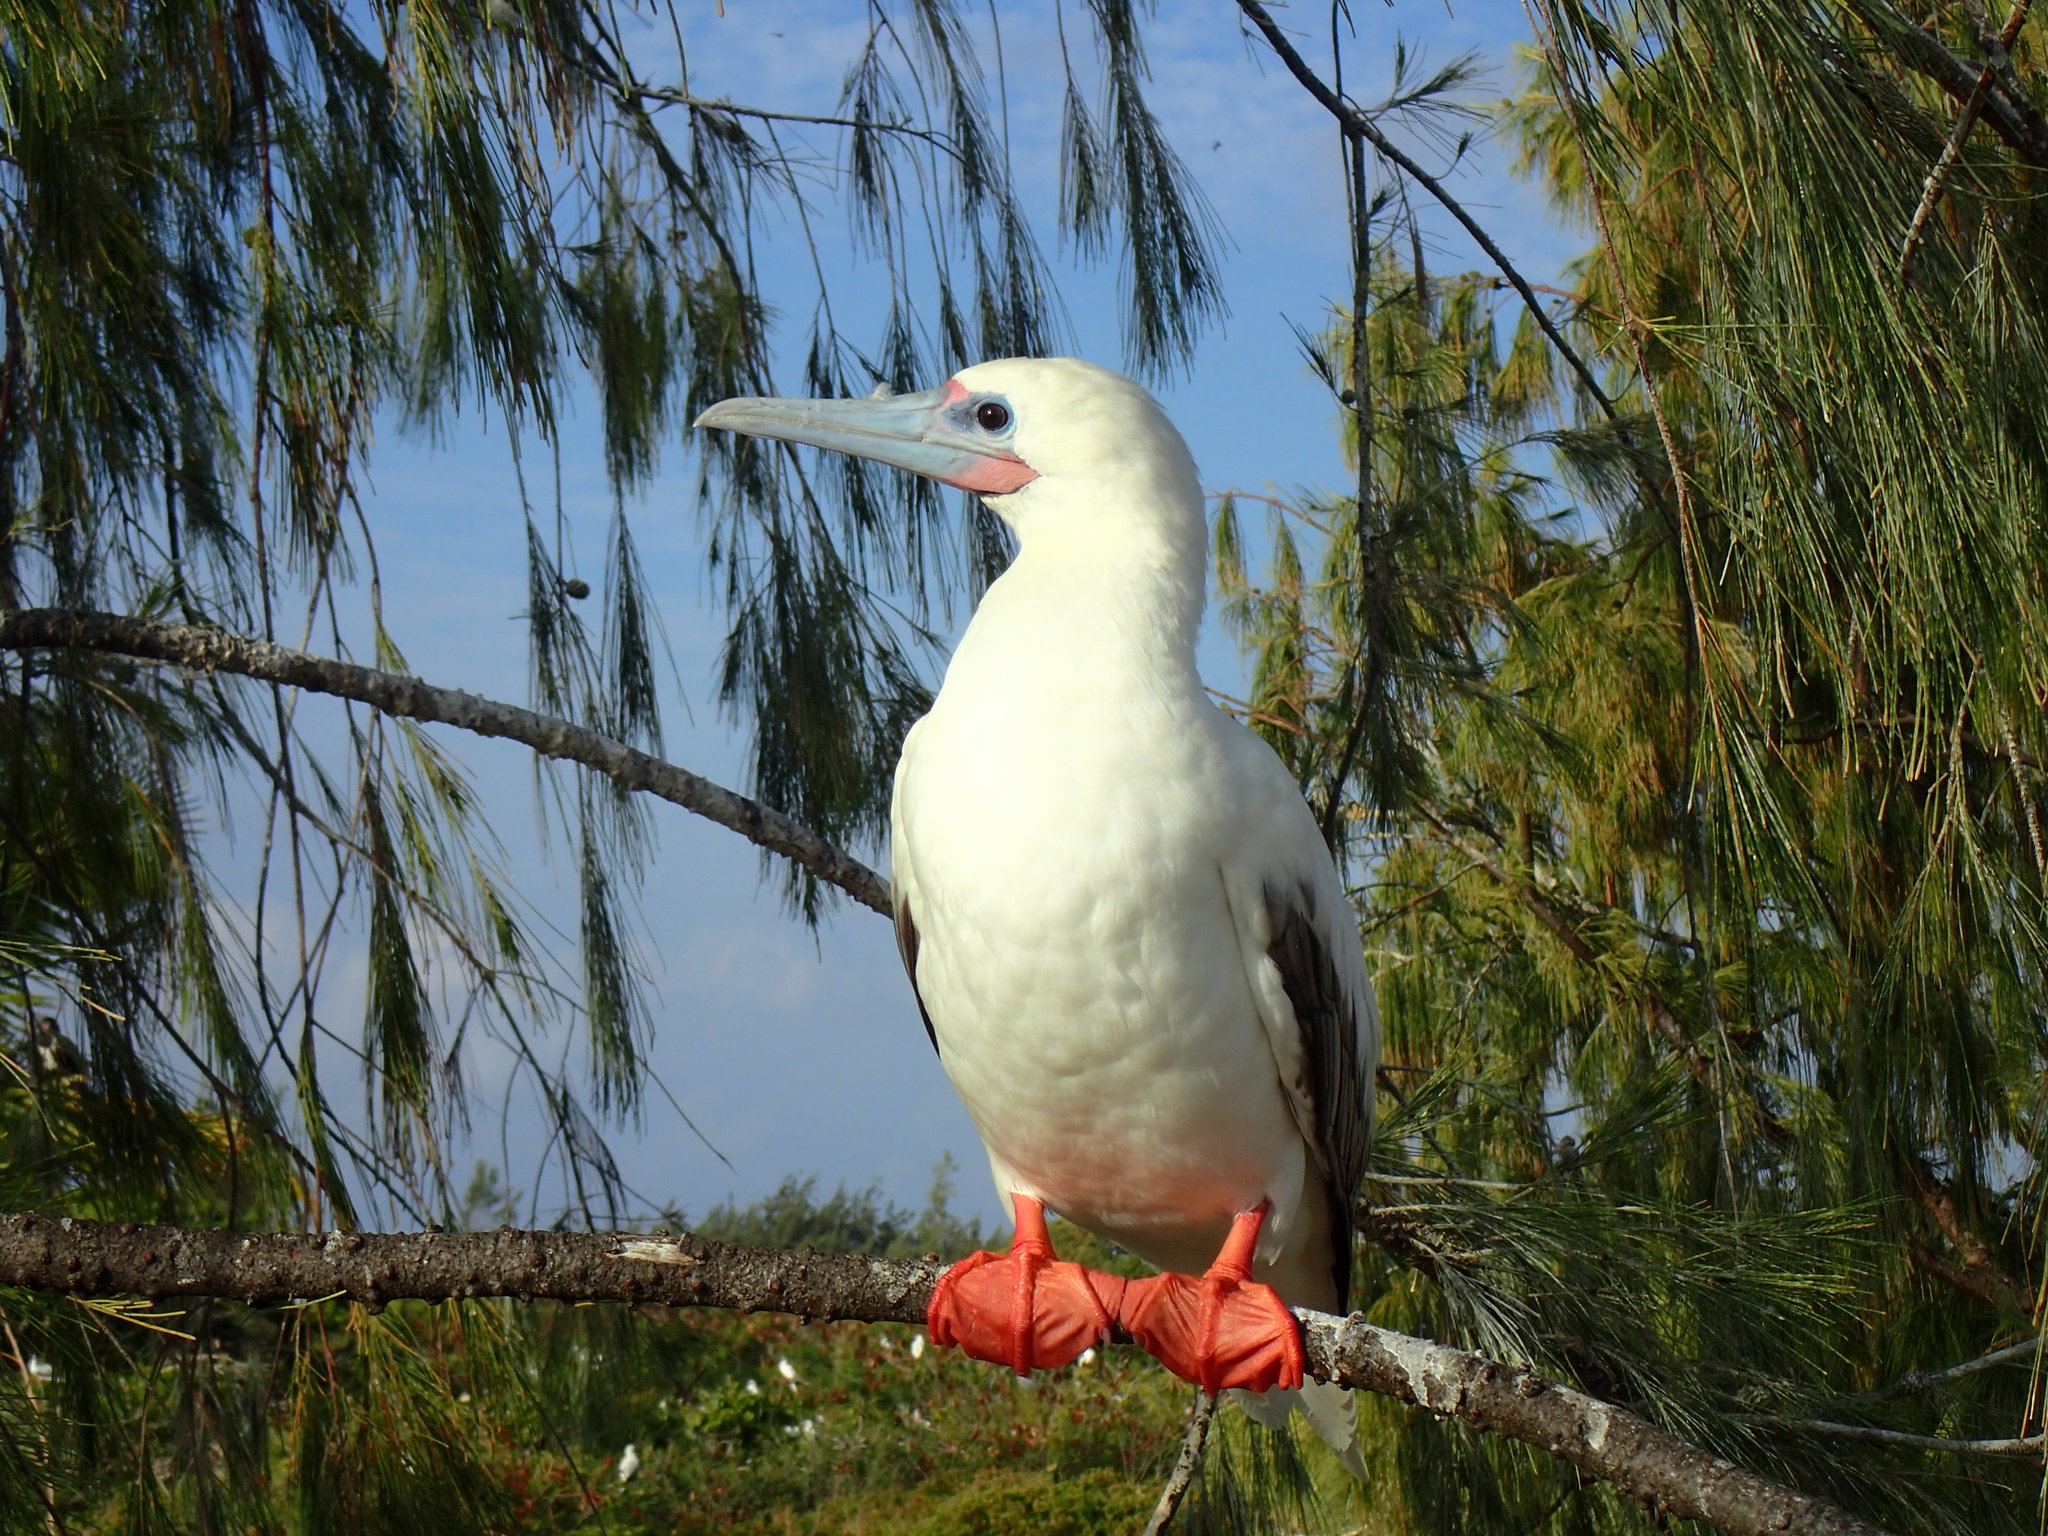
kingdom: Animalia
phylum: Chordata
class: Aves
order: Suliformes
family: Sulidae
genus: Sula
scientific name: Sula sula
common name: Red-footed booby
